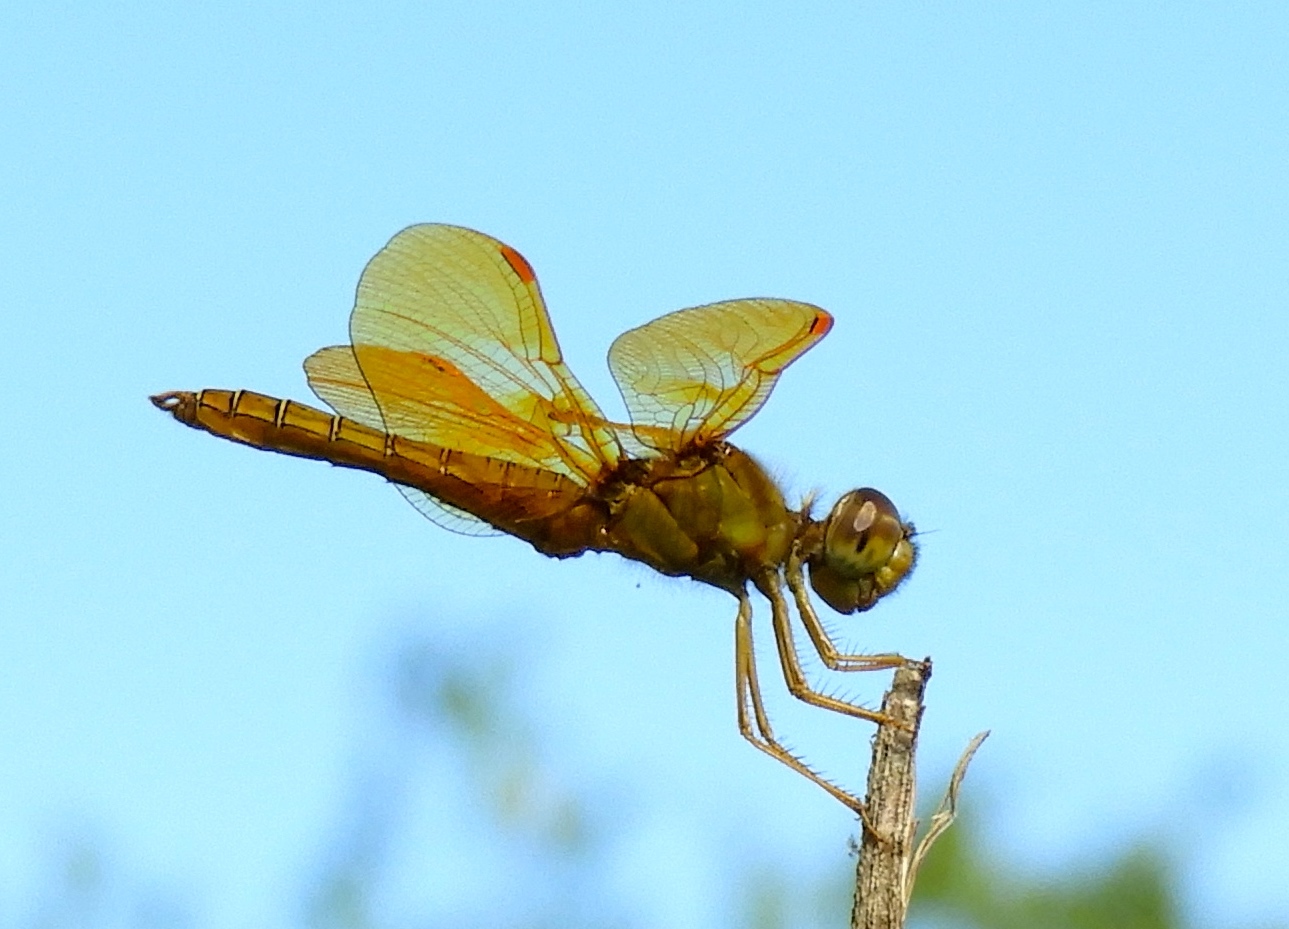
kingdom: Animalia
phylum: Arthropoda
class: Insecta
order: Odonata
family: Libellulidae
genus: Perithemis
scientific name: Perithemis intensa
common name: Mexican amberwing
